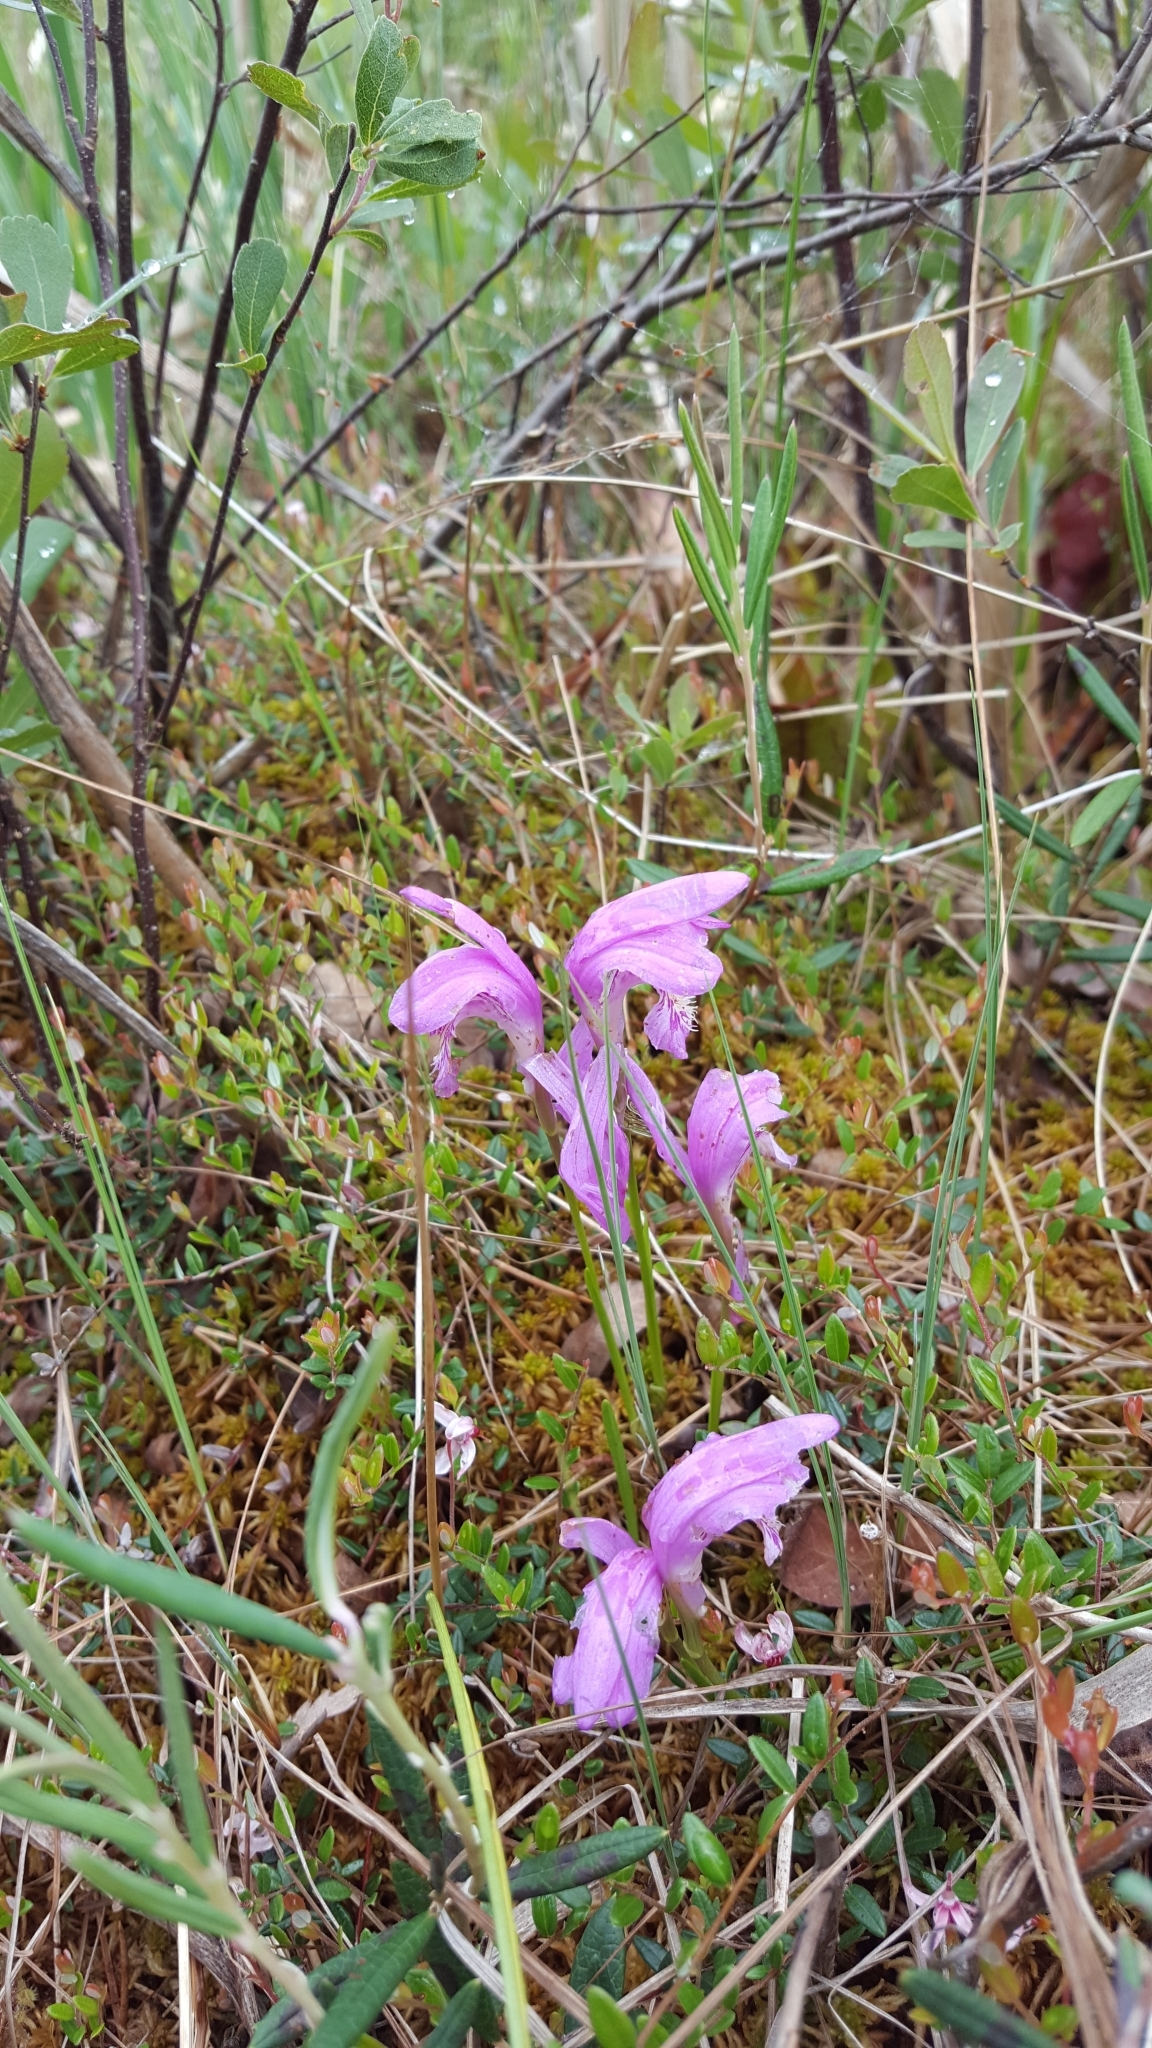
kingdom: Plantae
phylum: Tracheophyta
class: Liliopsida
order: Asparagales
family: Orchidaceae
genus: Arethusa
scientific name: Arethusa bulbosa
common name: Arethusa
